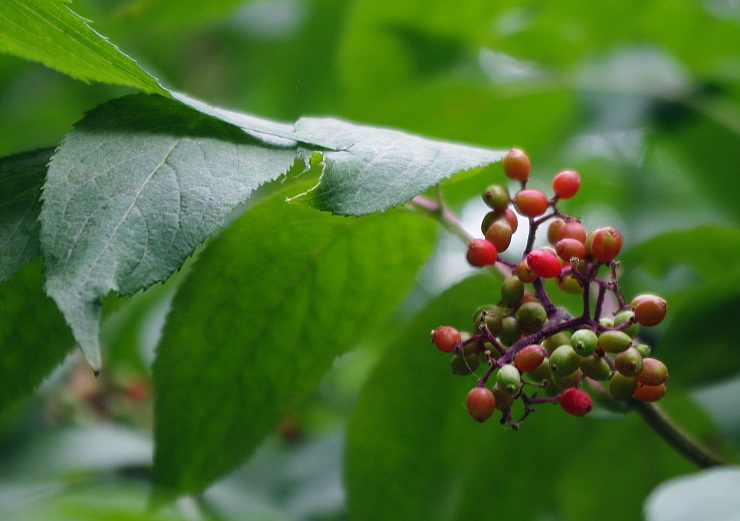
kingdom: Plantae
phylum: Tracheophyta
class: Magnoliopsida
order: Dipsacales
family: Viburnaceae
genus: Sambucus
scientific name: Sambucus racemosa
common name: Red-berried elder
